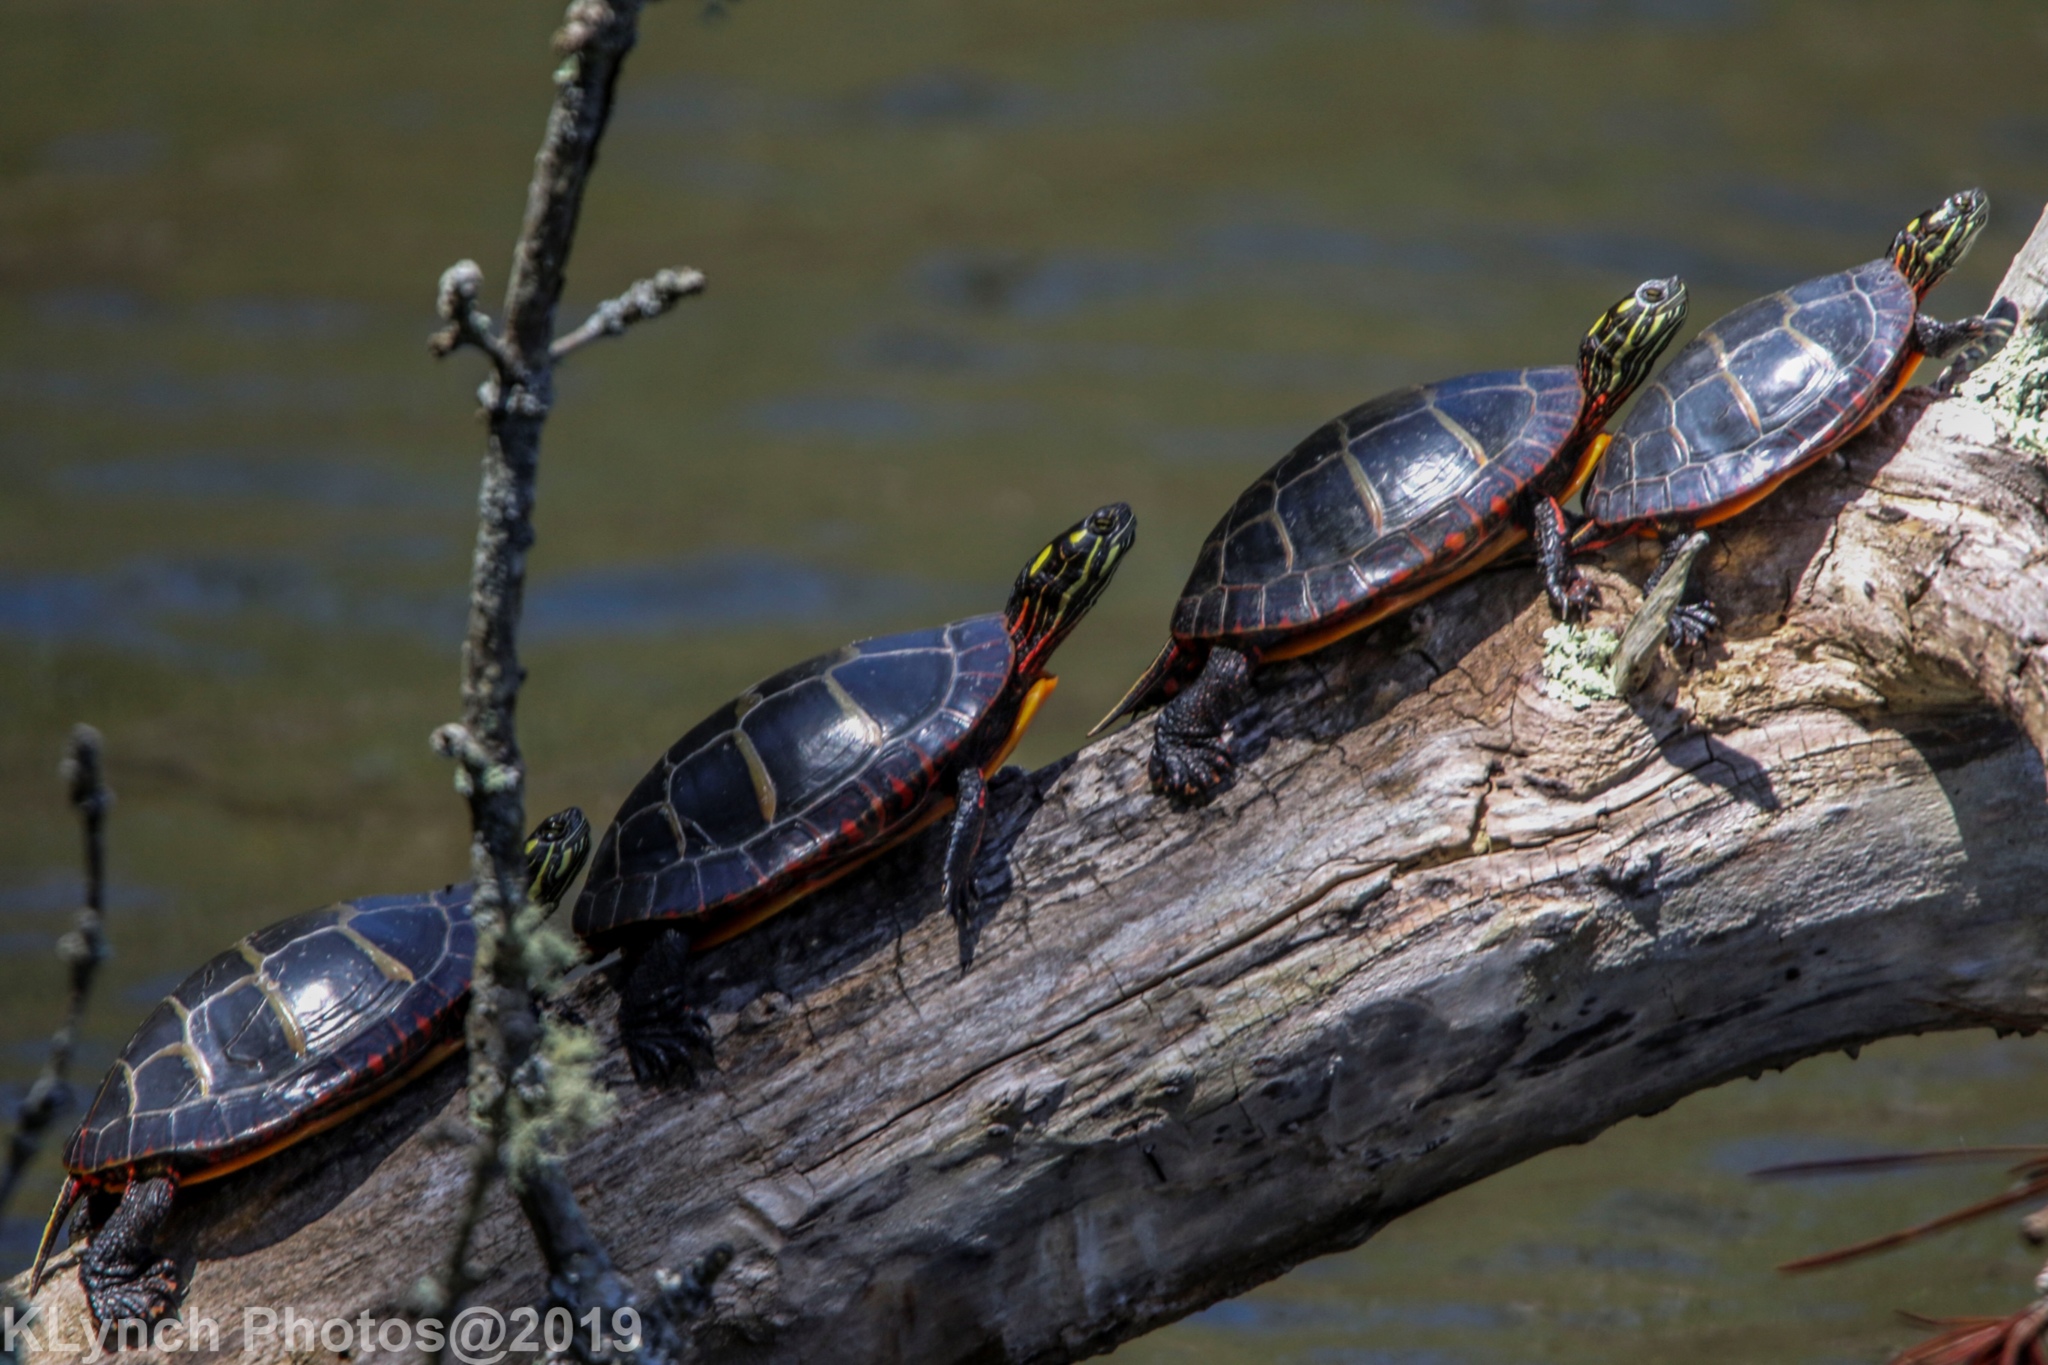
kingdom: Animalia
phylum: Chordata
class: Testudines
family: Emydidae
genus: Chrysemys
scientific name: Chrysemys picta
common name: Painted turtle
